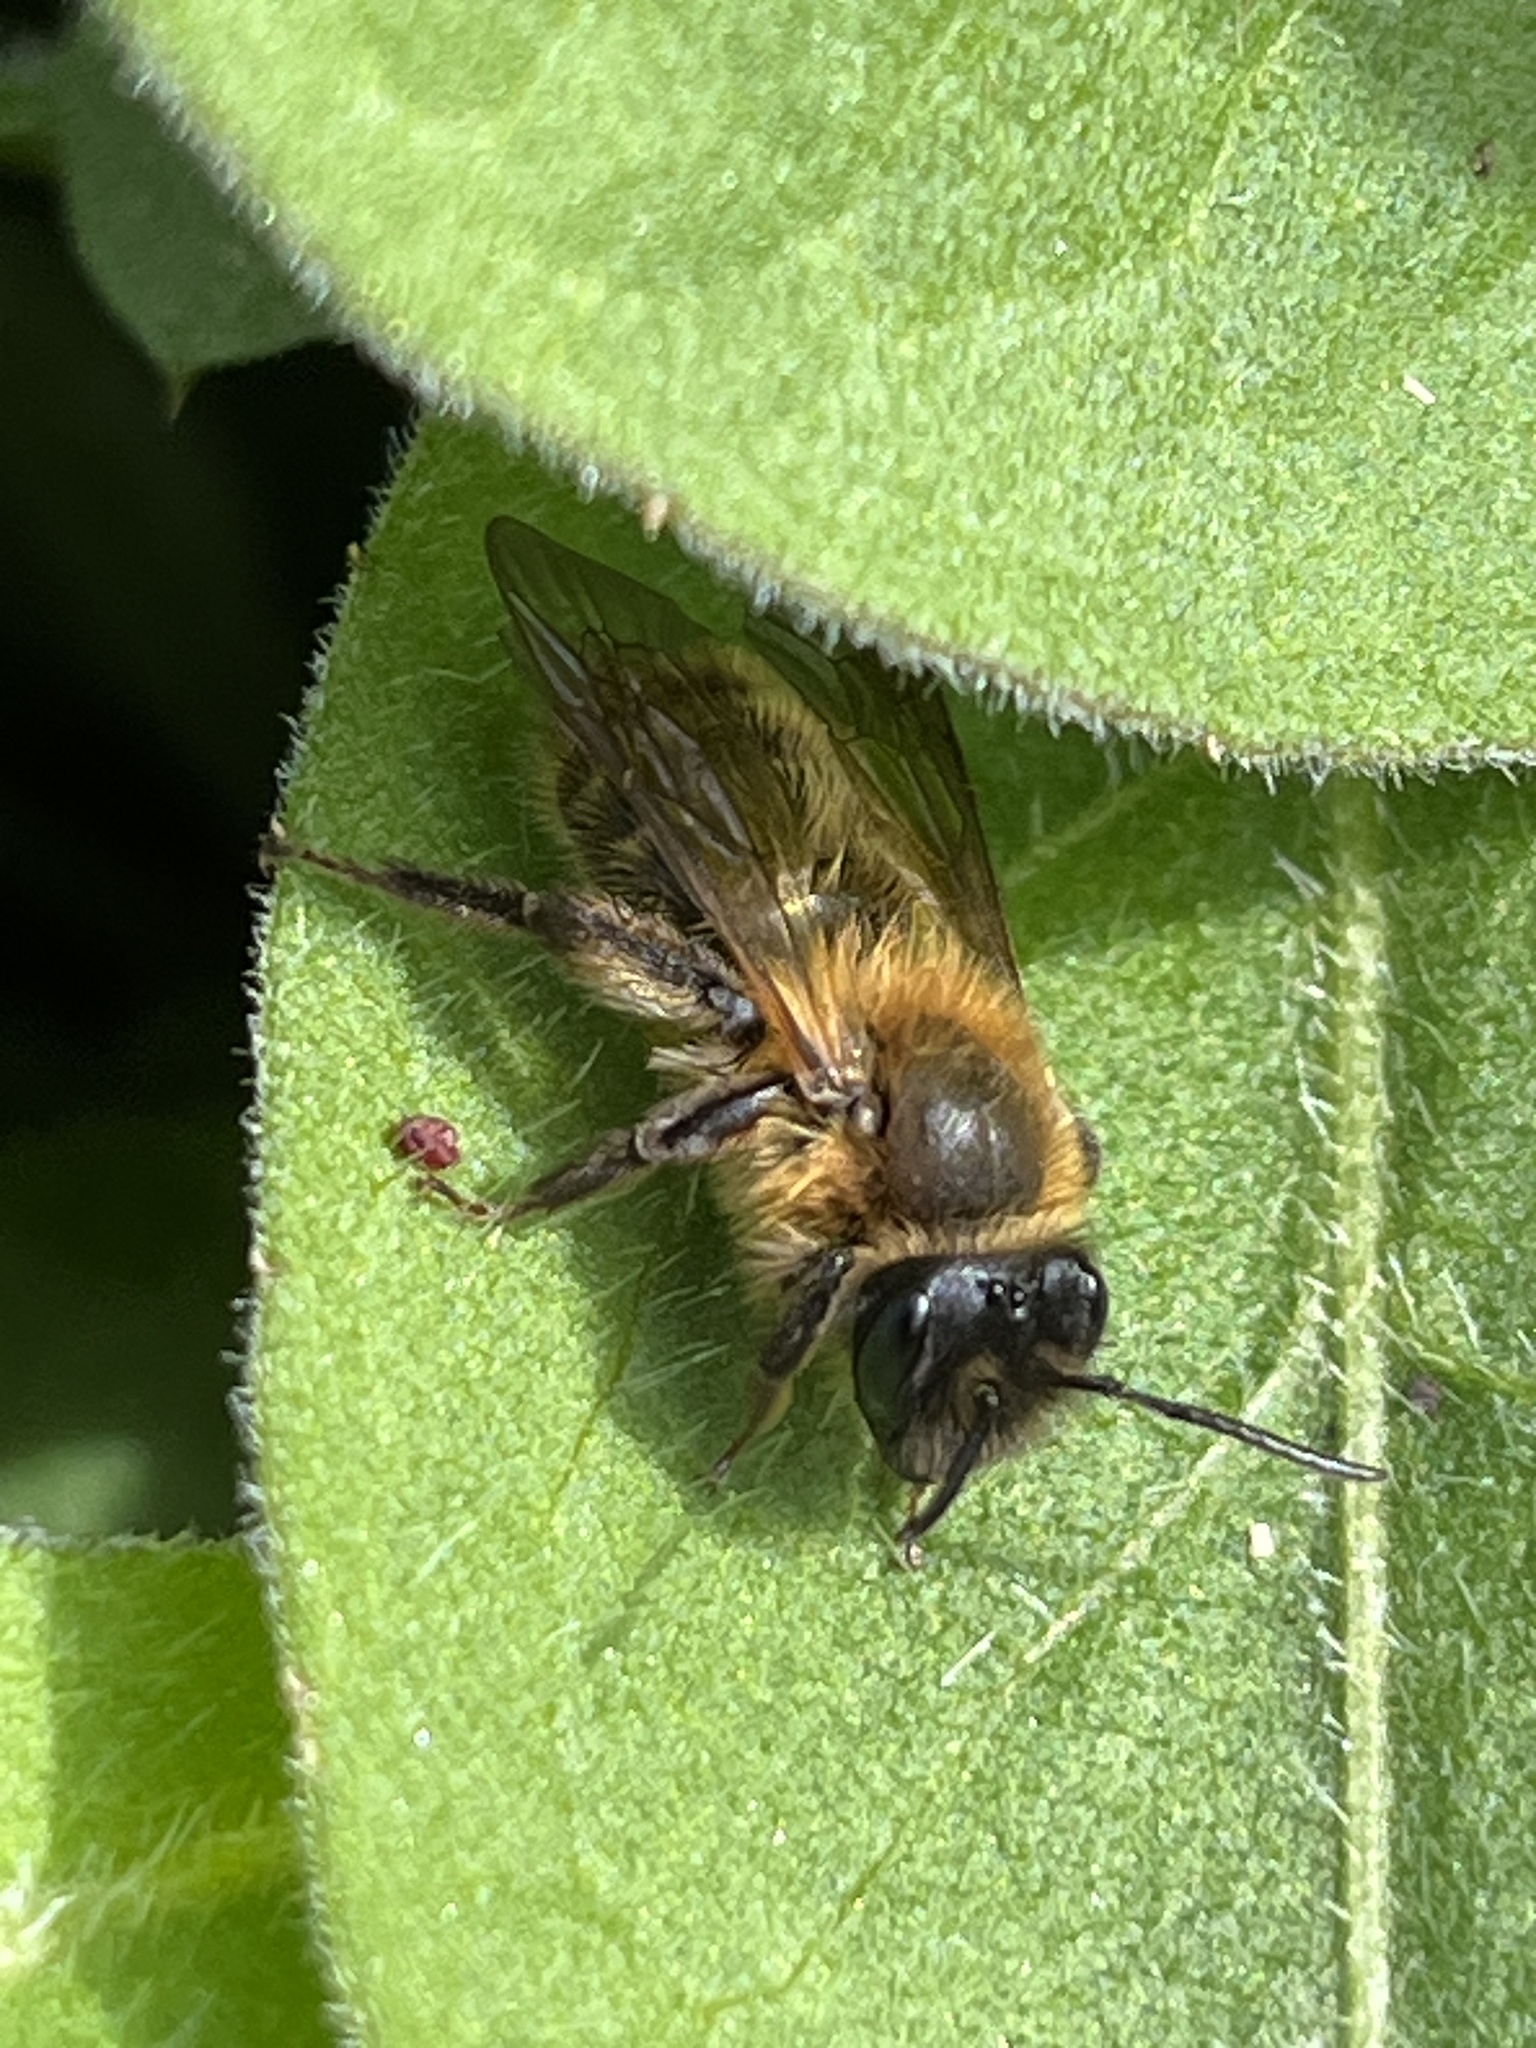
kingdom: Animalia
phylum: Arthropoda
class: Insecta
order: Hymenoptera
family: Andrenidae
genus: Andrena
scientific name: Andrena carantonica
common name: Chocolate mining bee
